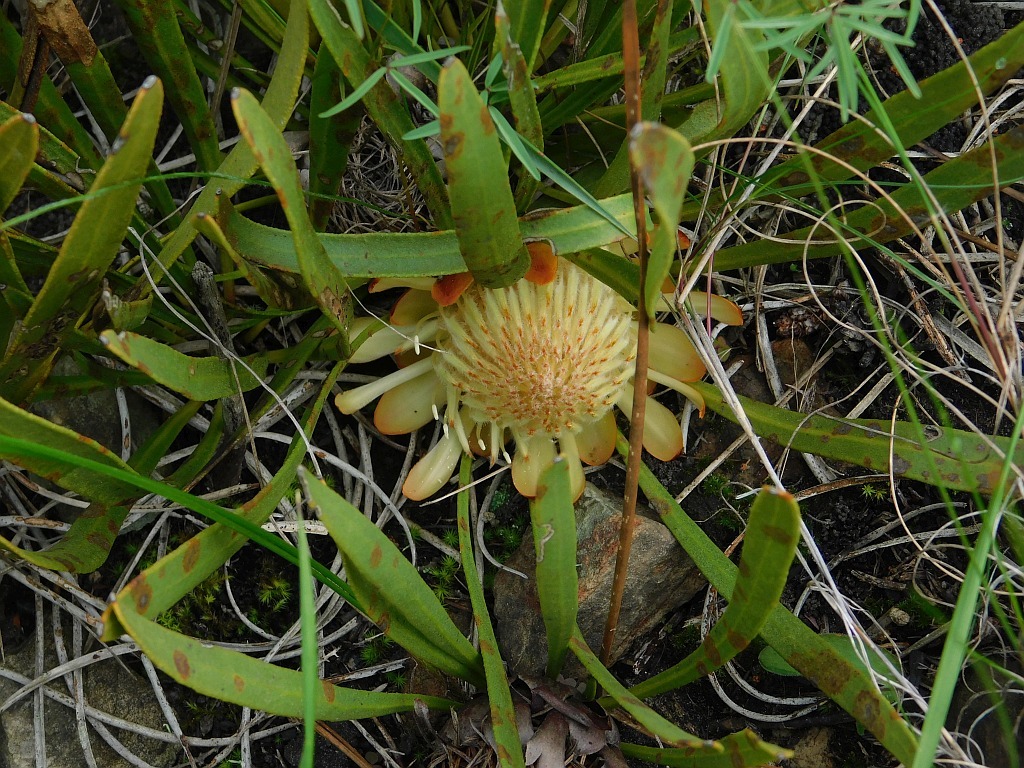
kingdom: Plantae
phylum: Tracheophyta
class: Magnoliopsida
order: Proteales
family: Proteaceae
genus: Protea
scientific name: Protea scabra
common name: Sandpaper-leaf sugarbush
